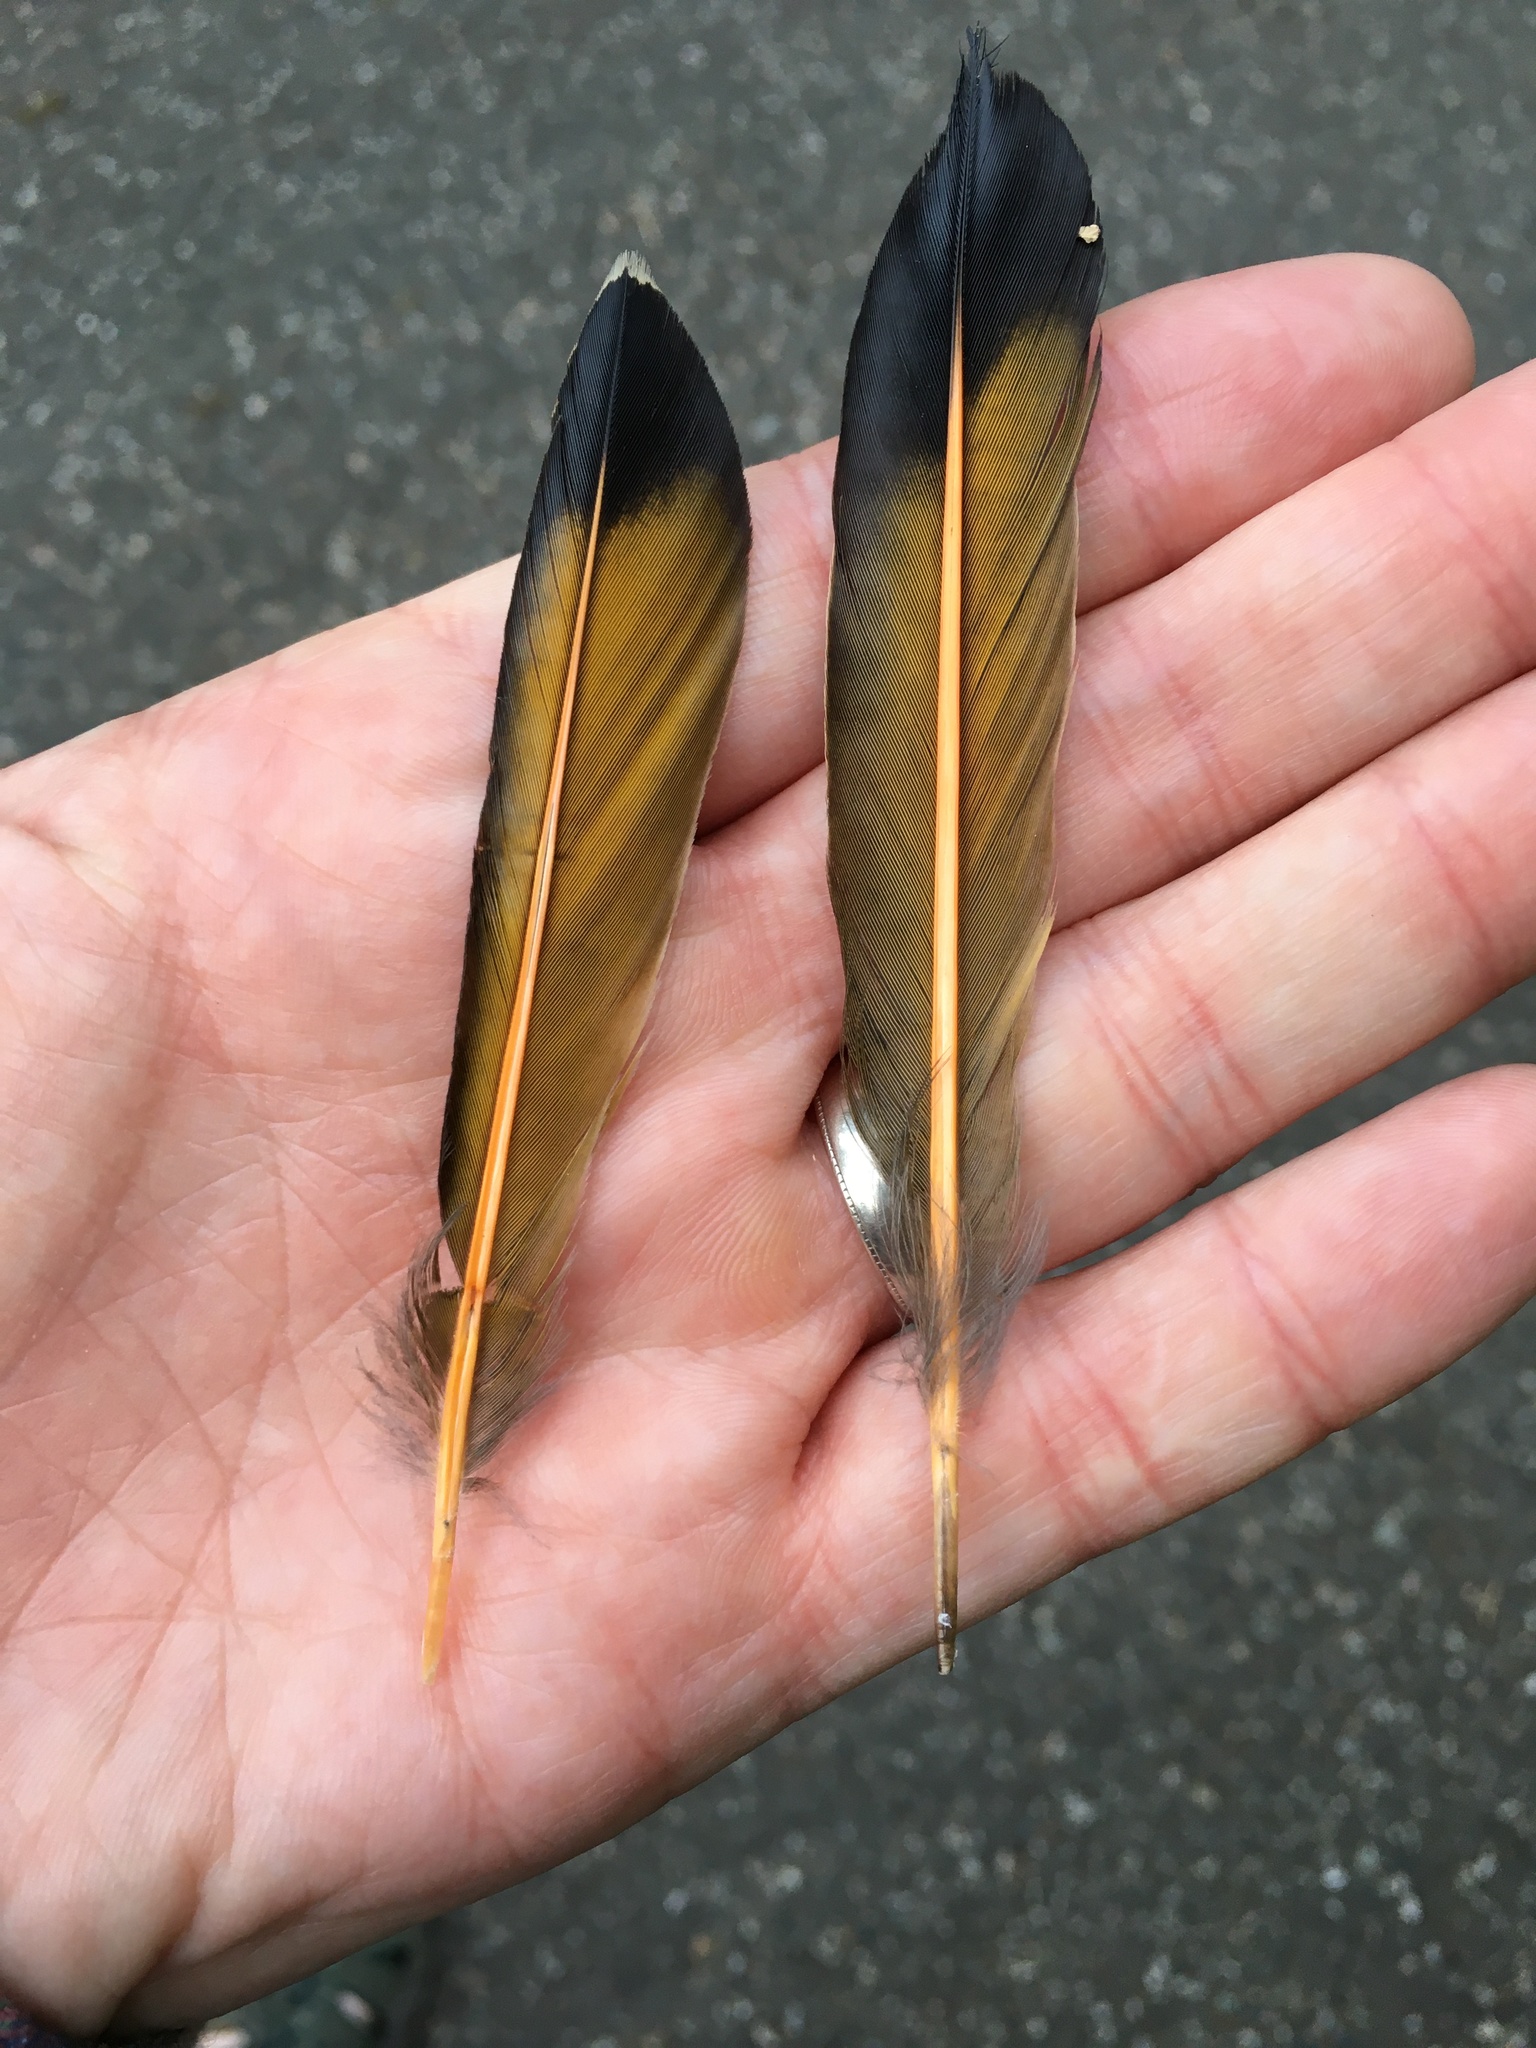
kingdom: Animalia
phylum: Chordata
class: Aves
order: Piciformes
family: Picidae
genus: Colaptes
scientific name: Colaptes auratus
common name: Northern flicker
